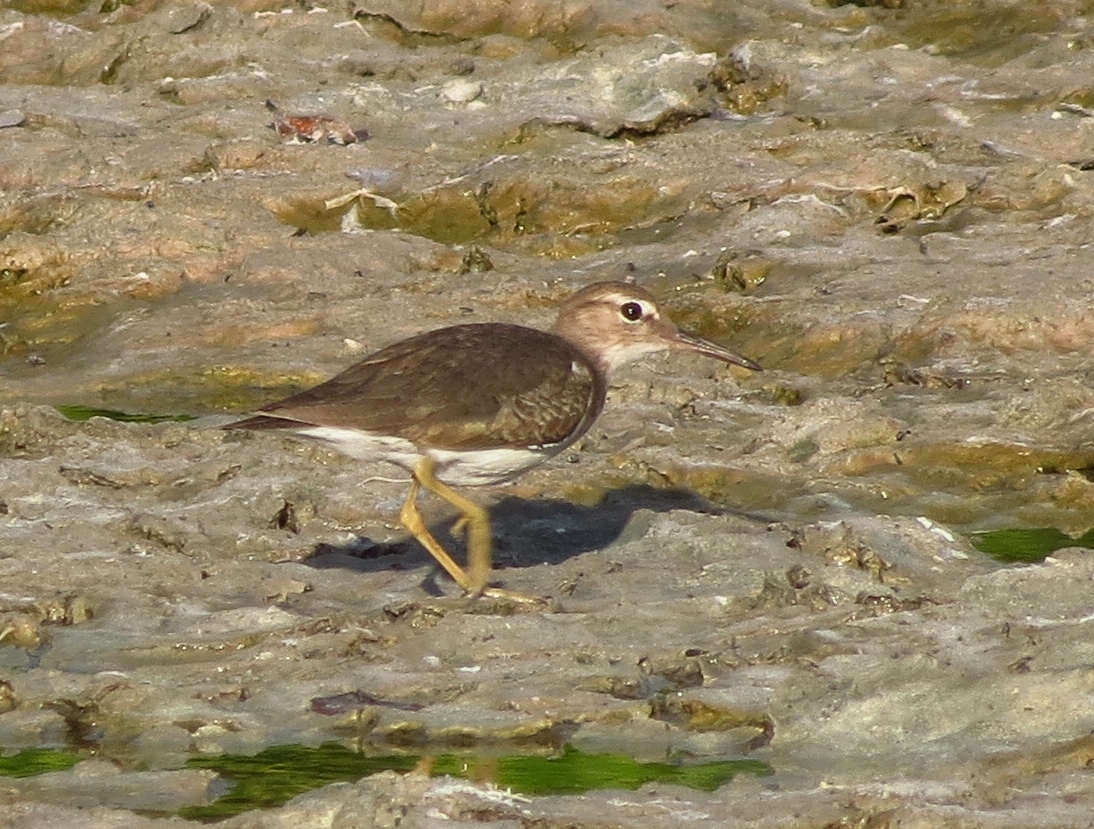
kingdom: Animalia
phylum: Chordata
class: Aves
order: Charadriiformes
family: Scolopacidae
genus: Actitis
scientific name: Actitis macularius
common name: Spotted sandpiper
